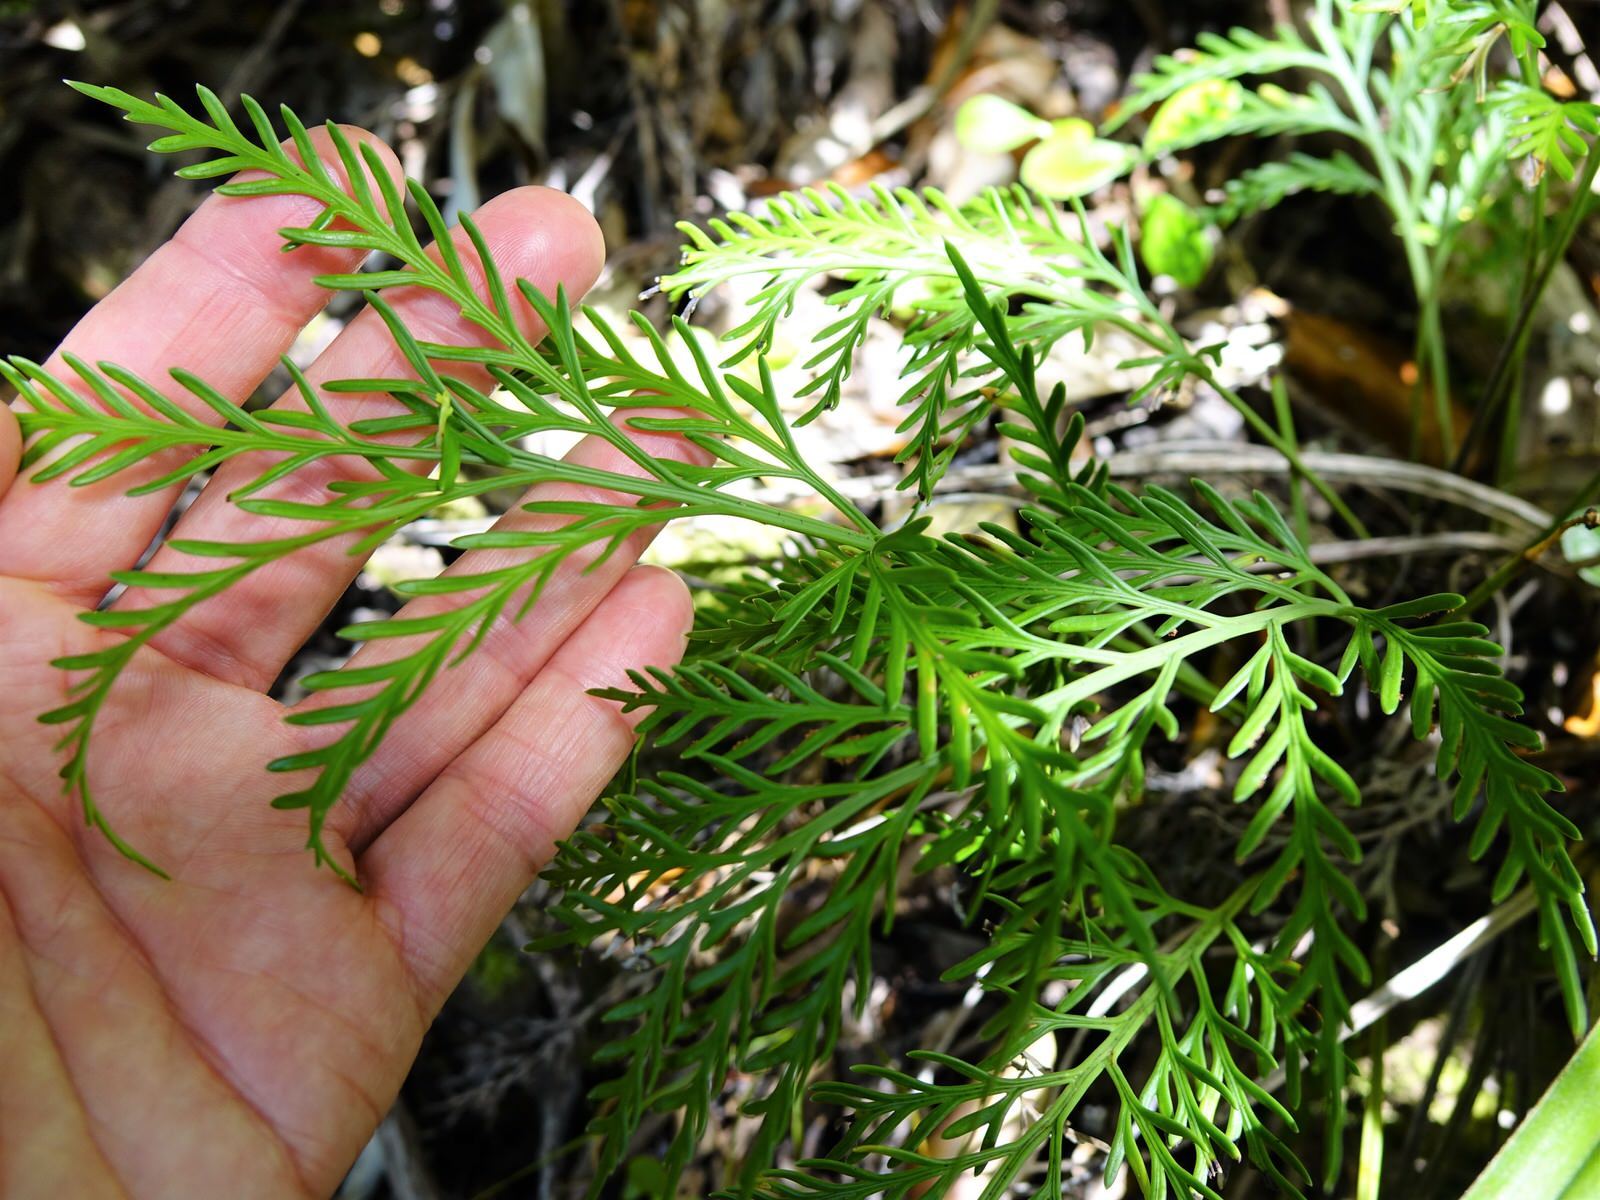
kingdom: Plantae
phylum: Tracheophyta
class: Polypodiopsida
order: Polypodiales
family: Aspleniaceae
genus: Asplenium
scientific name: Asplenium haurakiense
